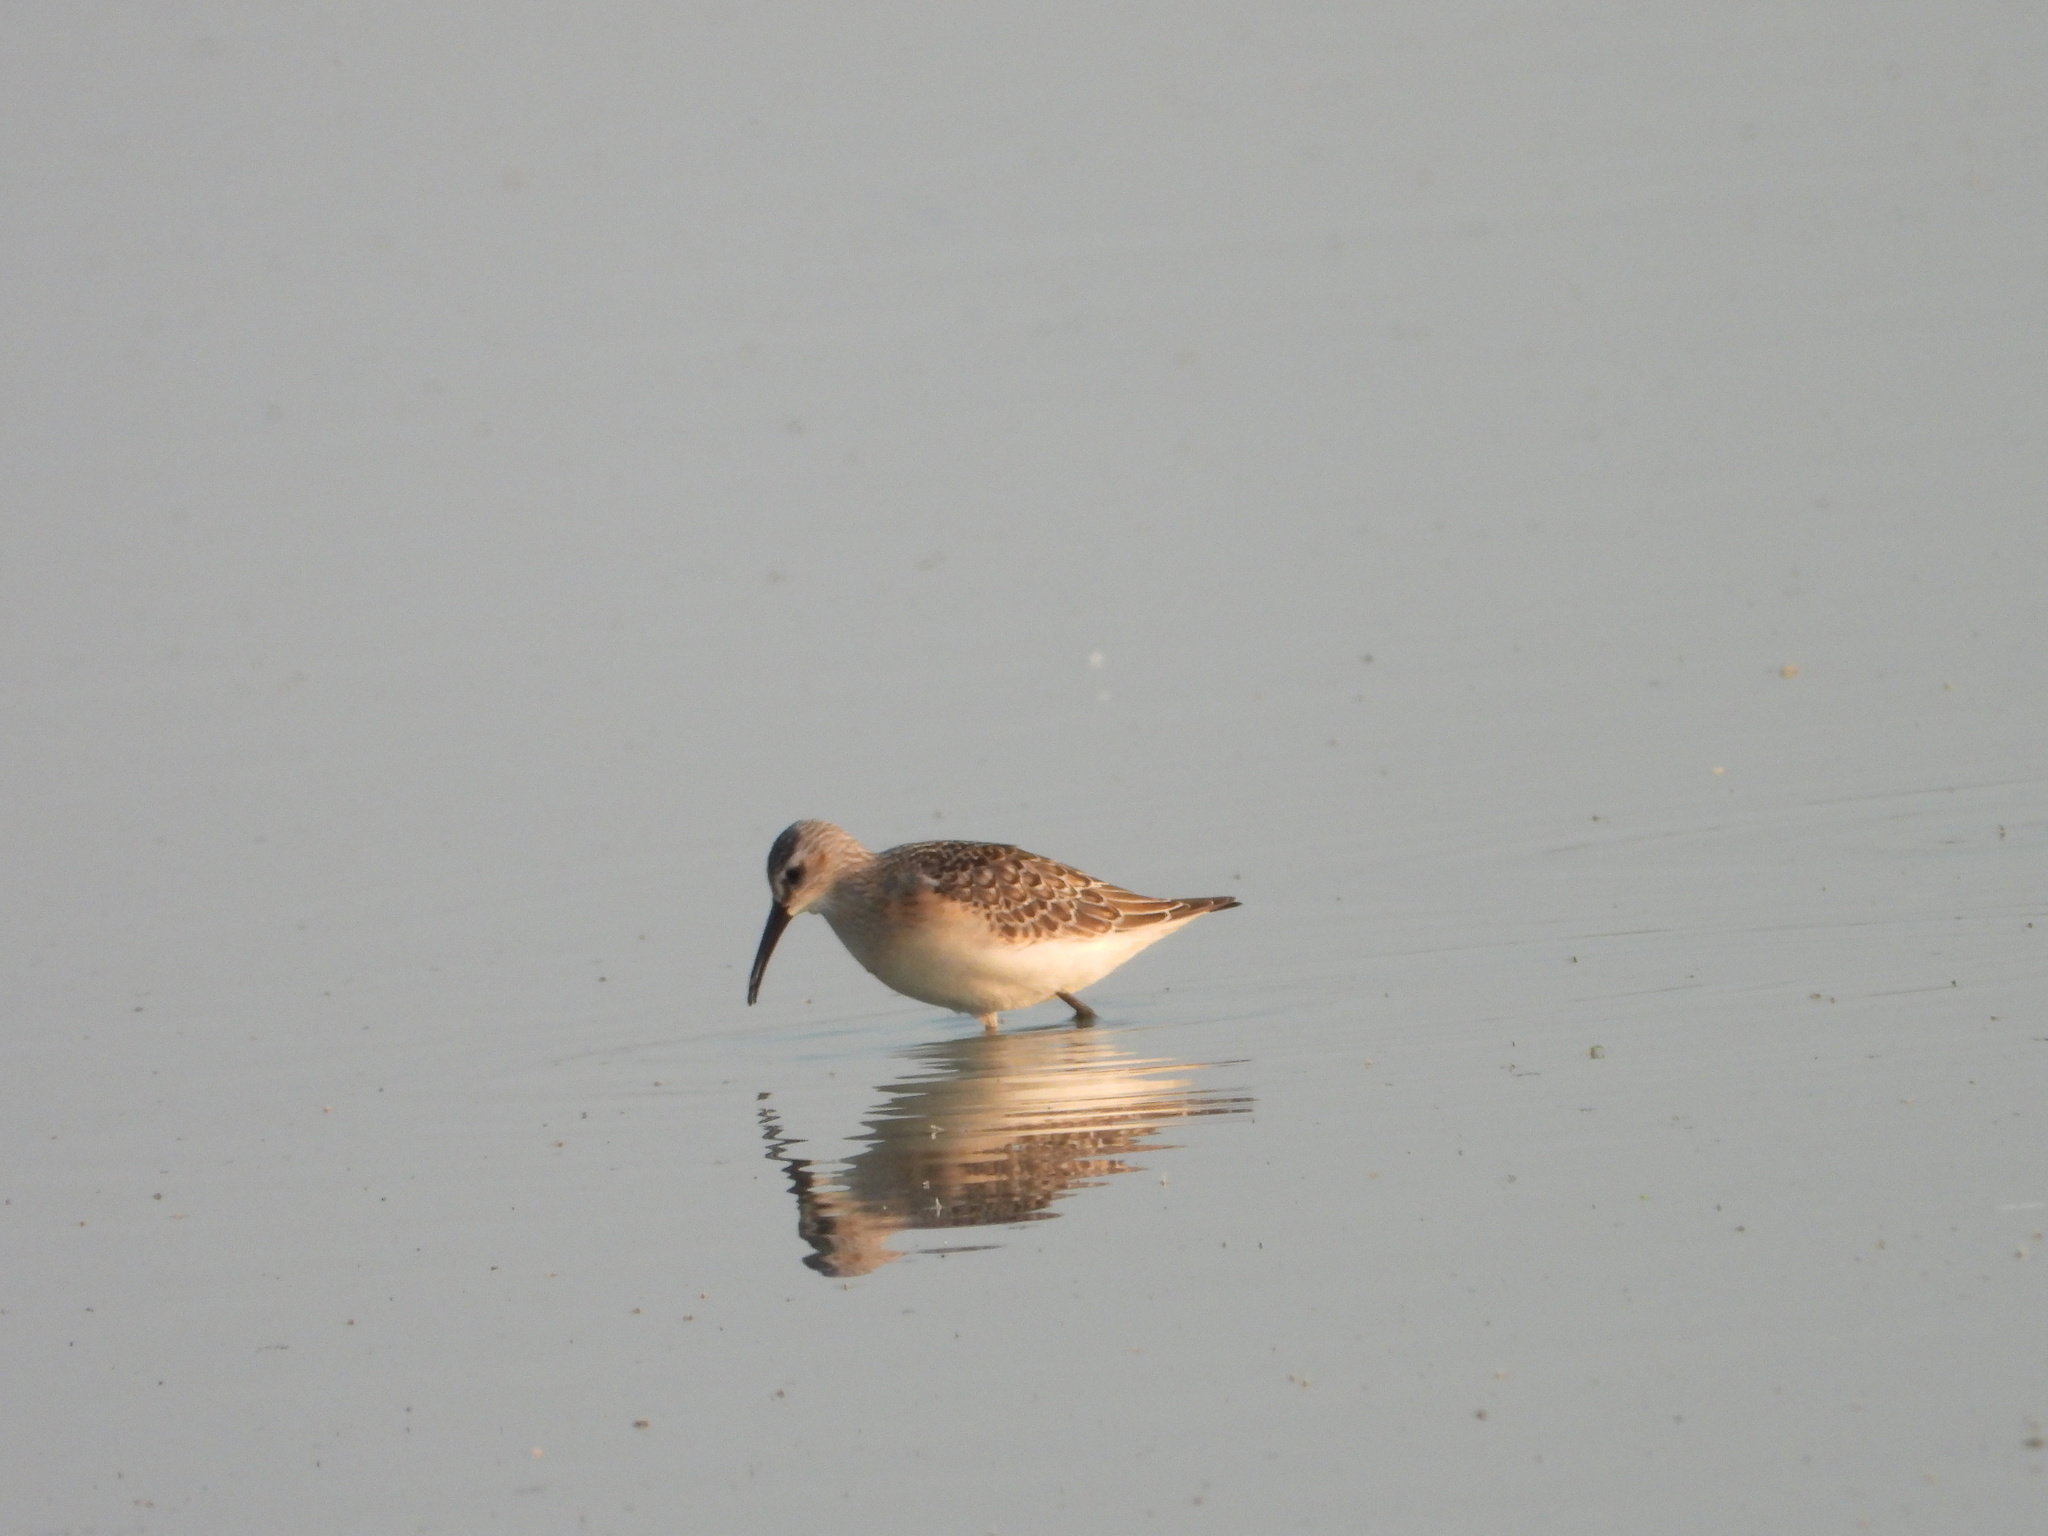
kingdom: Animalia
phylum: Chordata
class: Aves
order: Charadriiformes
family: Scolopacidae
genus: Calidris
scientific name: Calidris ferruginea
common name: Curlew sandpiper
